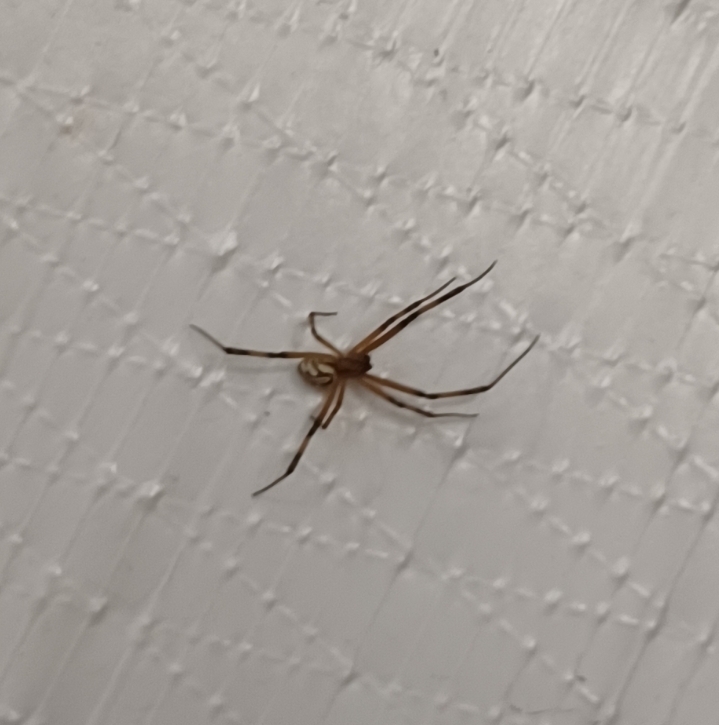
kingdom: Animalia
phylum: Arthropoda
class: Arachnida
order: Araneae
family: Theridiidae
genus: Latrodectus
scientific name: Latrodectus hesperus
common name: Western black widow
